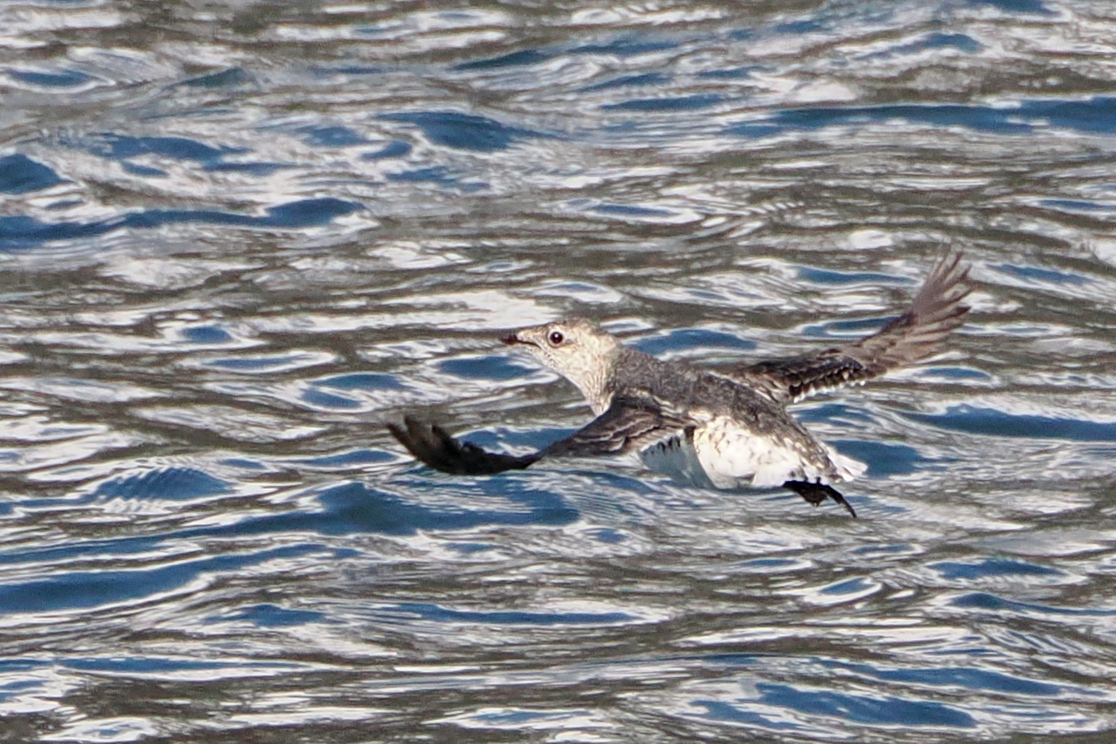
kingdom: Animalia
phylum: Chordata
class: Aves
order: Charadriiformes
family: Alcidae
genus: Brachyramphus
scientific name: Brachyramphus brevirostris
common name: Kittlitz's murrelet
